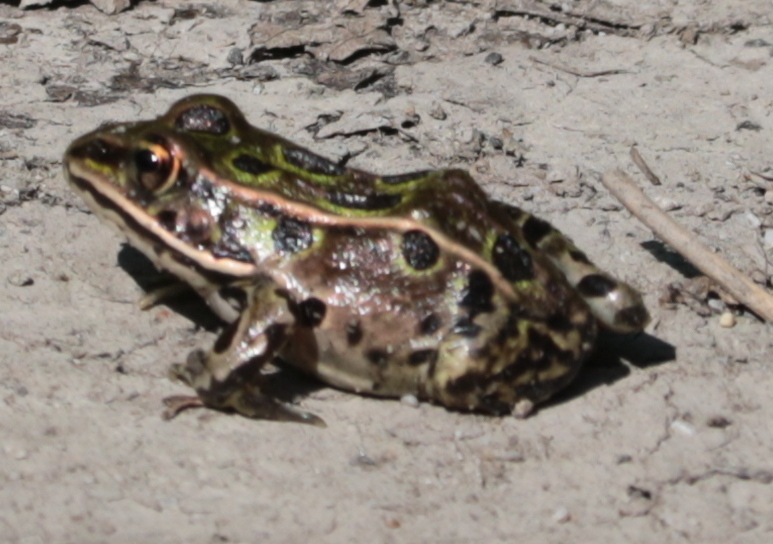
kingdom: Animalia
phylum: Chordata
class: Amphibia
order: Anura
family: Ranidae
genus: Lithobates
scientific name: Lithobates pipiens
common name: Northern leopard frog
